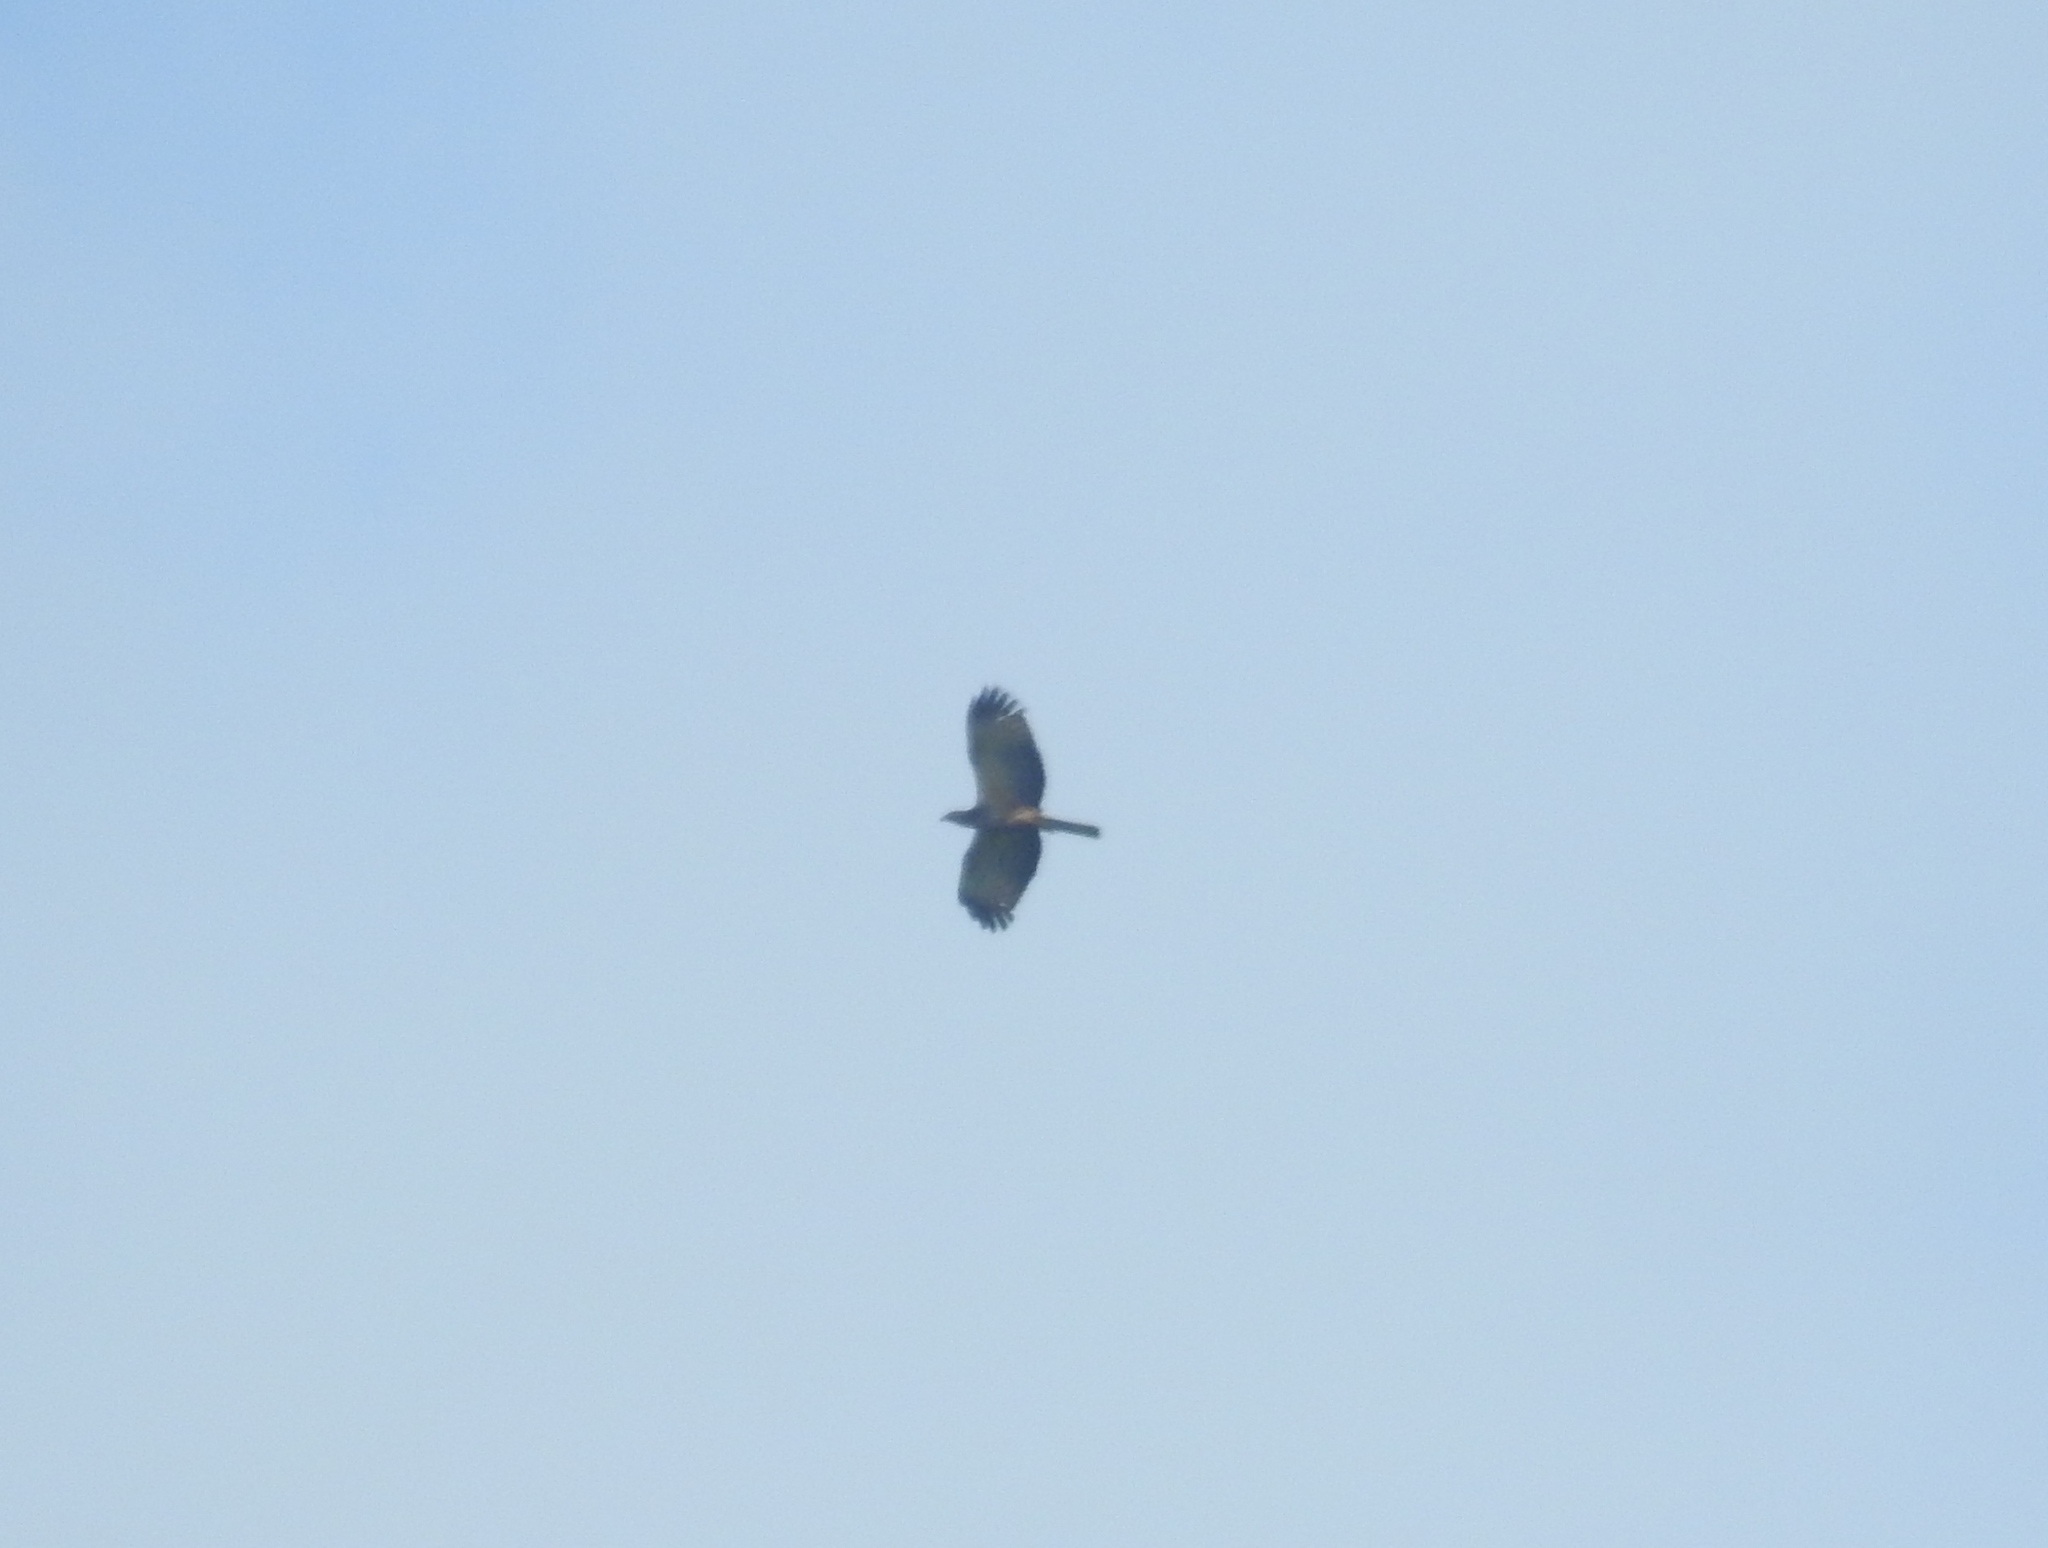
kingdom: Animalia
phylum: Chordata
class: Aves
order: Accipitriformes
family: Accipitridae
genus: Pernis
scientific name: Pernis ptilorhynchus
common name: Crested honey buzzard
